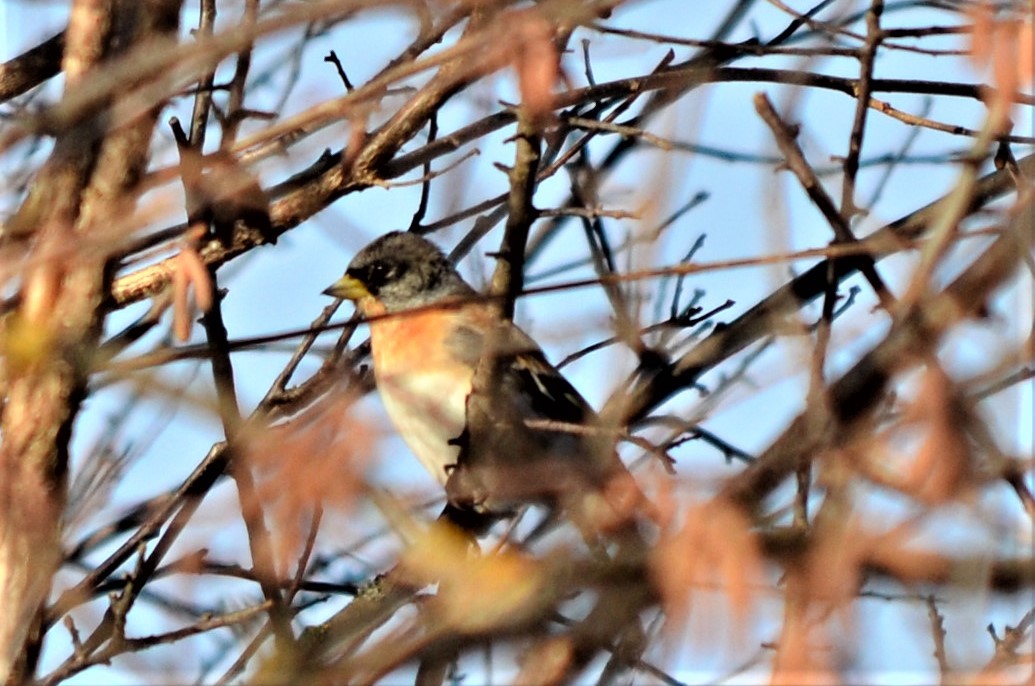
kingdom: Animalia
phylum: Chordata
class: Aves
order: Passeriformes
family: Fringillidae
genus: Fringilla
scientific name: Fringilla montifringilla
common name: Brambling
